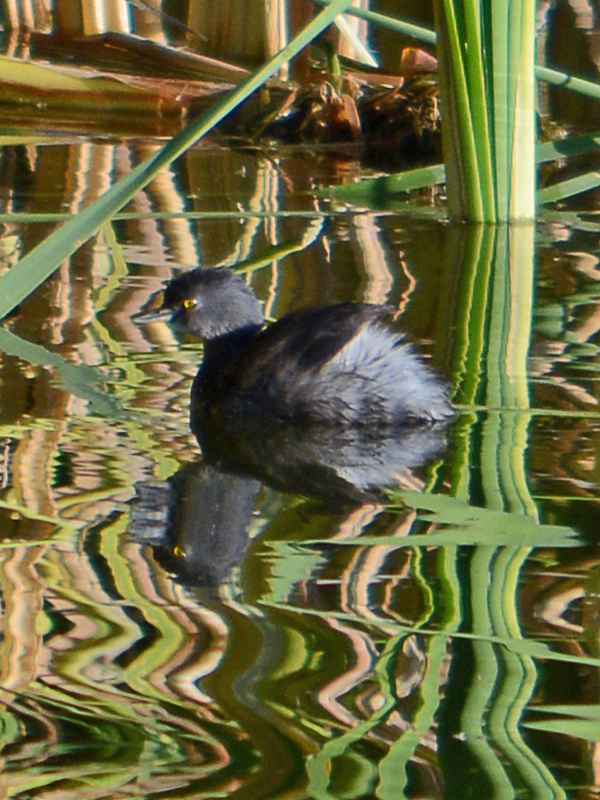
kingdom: Animalia
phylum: Chordata
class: Aves
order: Podicipediformes
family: Podicipedidae
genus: Tachybaptus
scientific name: Tachybaptus dominicus
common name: Least grebe
